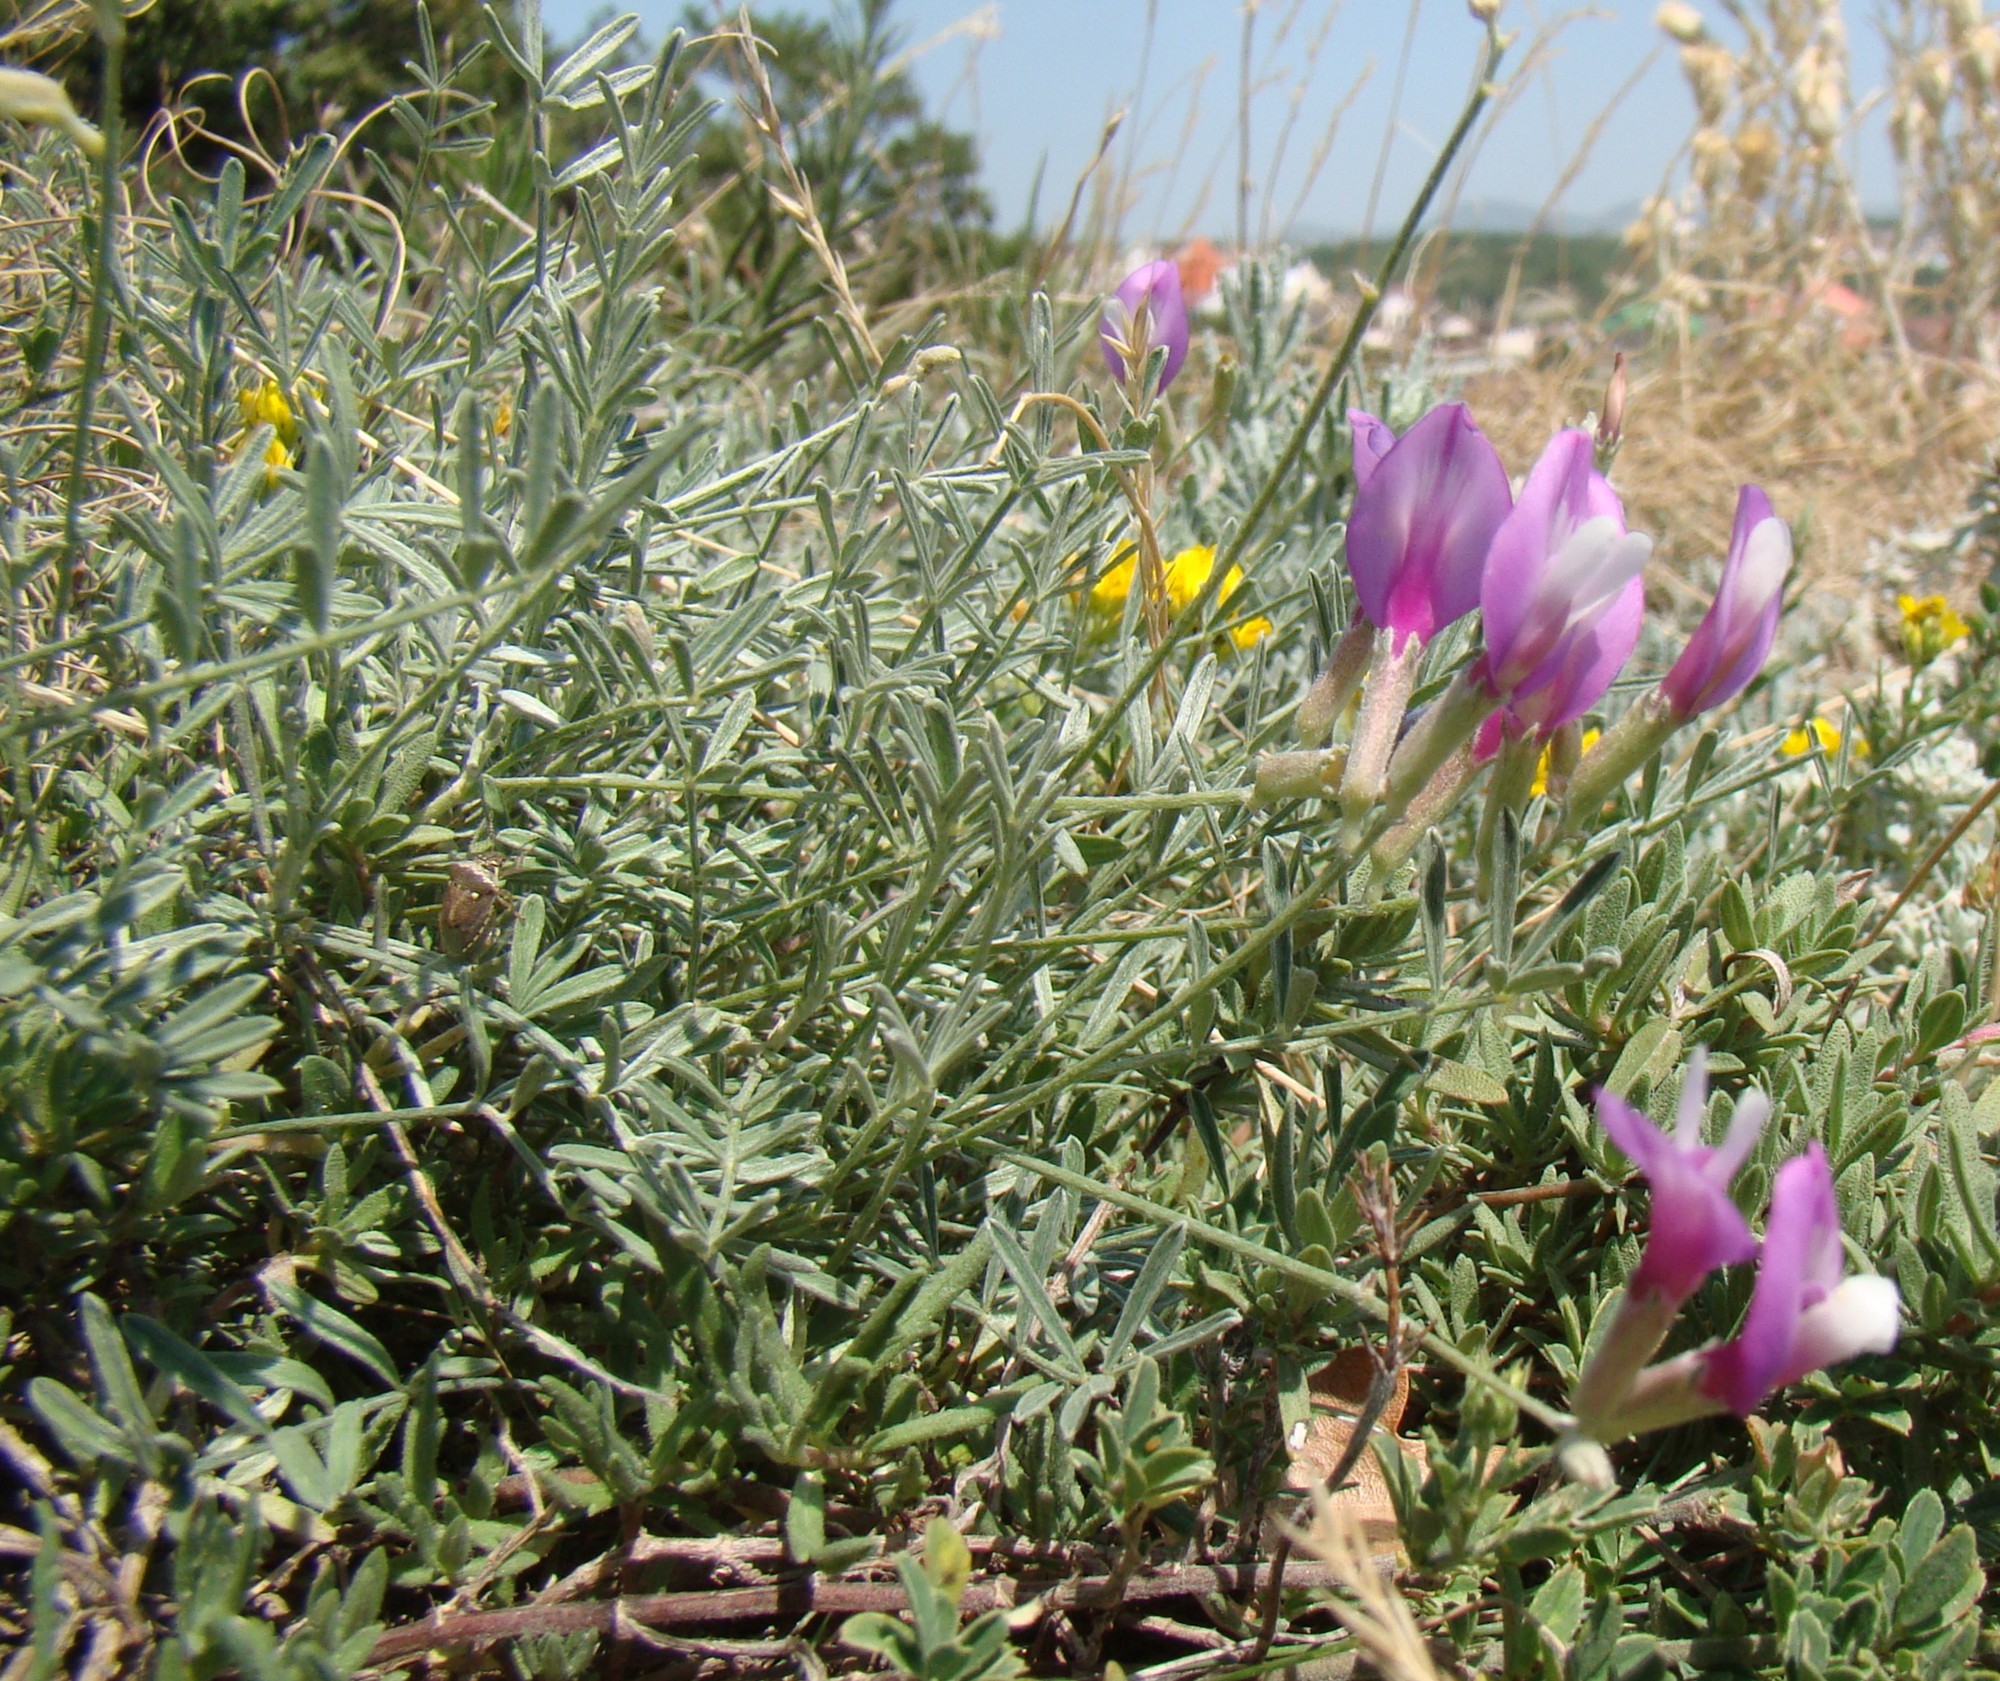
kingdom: Plantae
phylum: Tracheophyta
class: Magnoliopsida
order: Fabales
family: Fabaceae
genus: Astragalus
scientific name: Astragalus subuliformis
